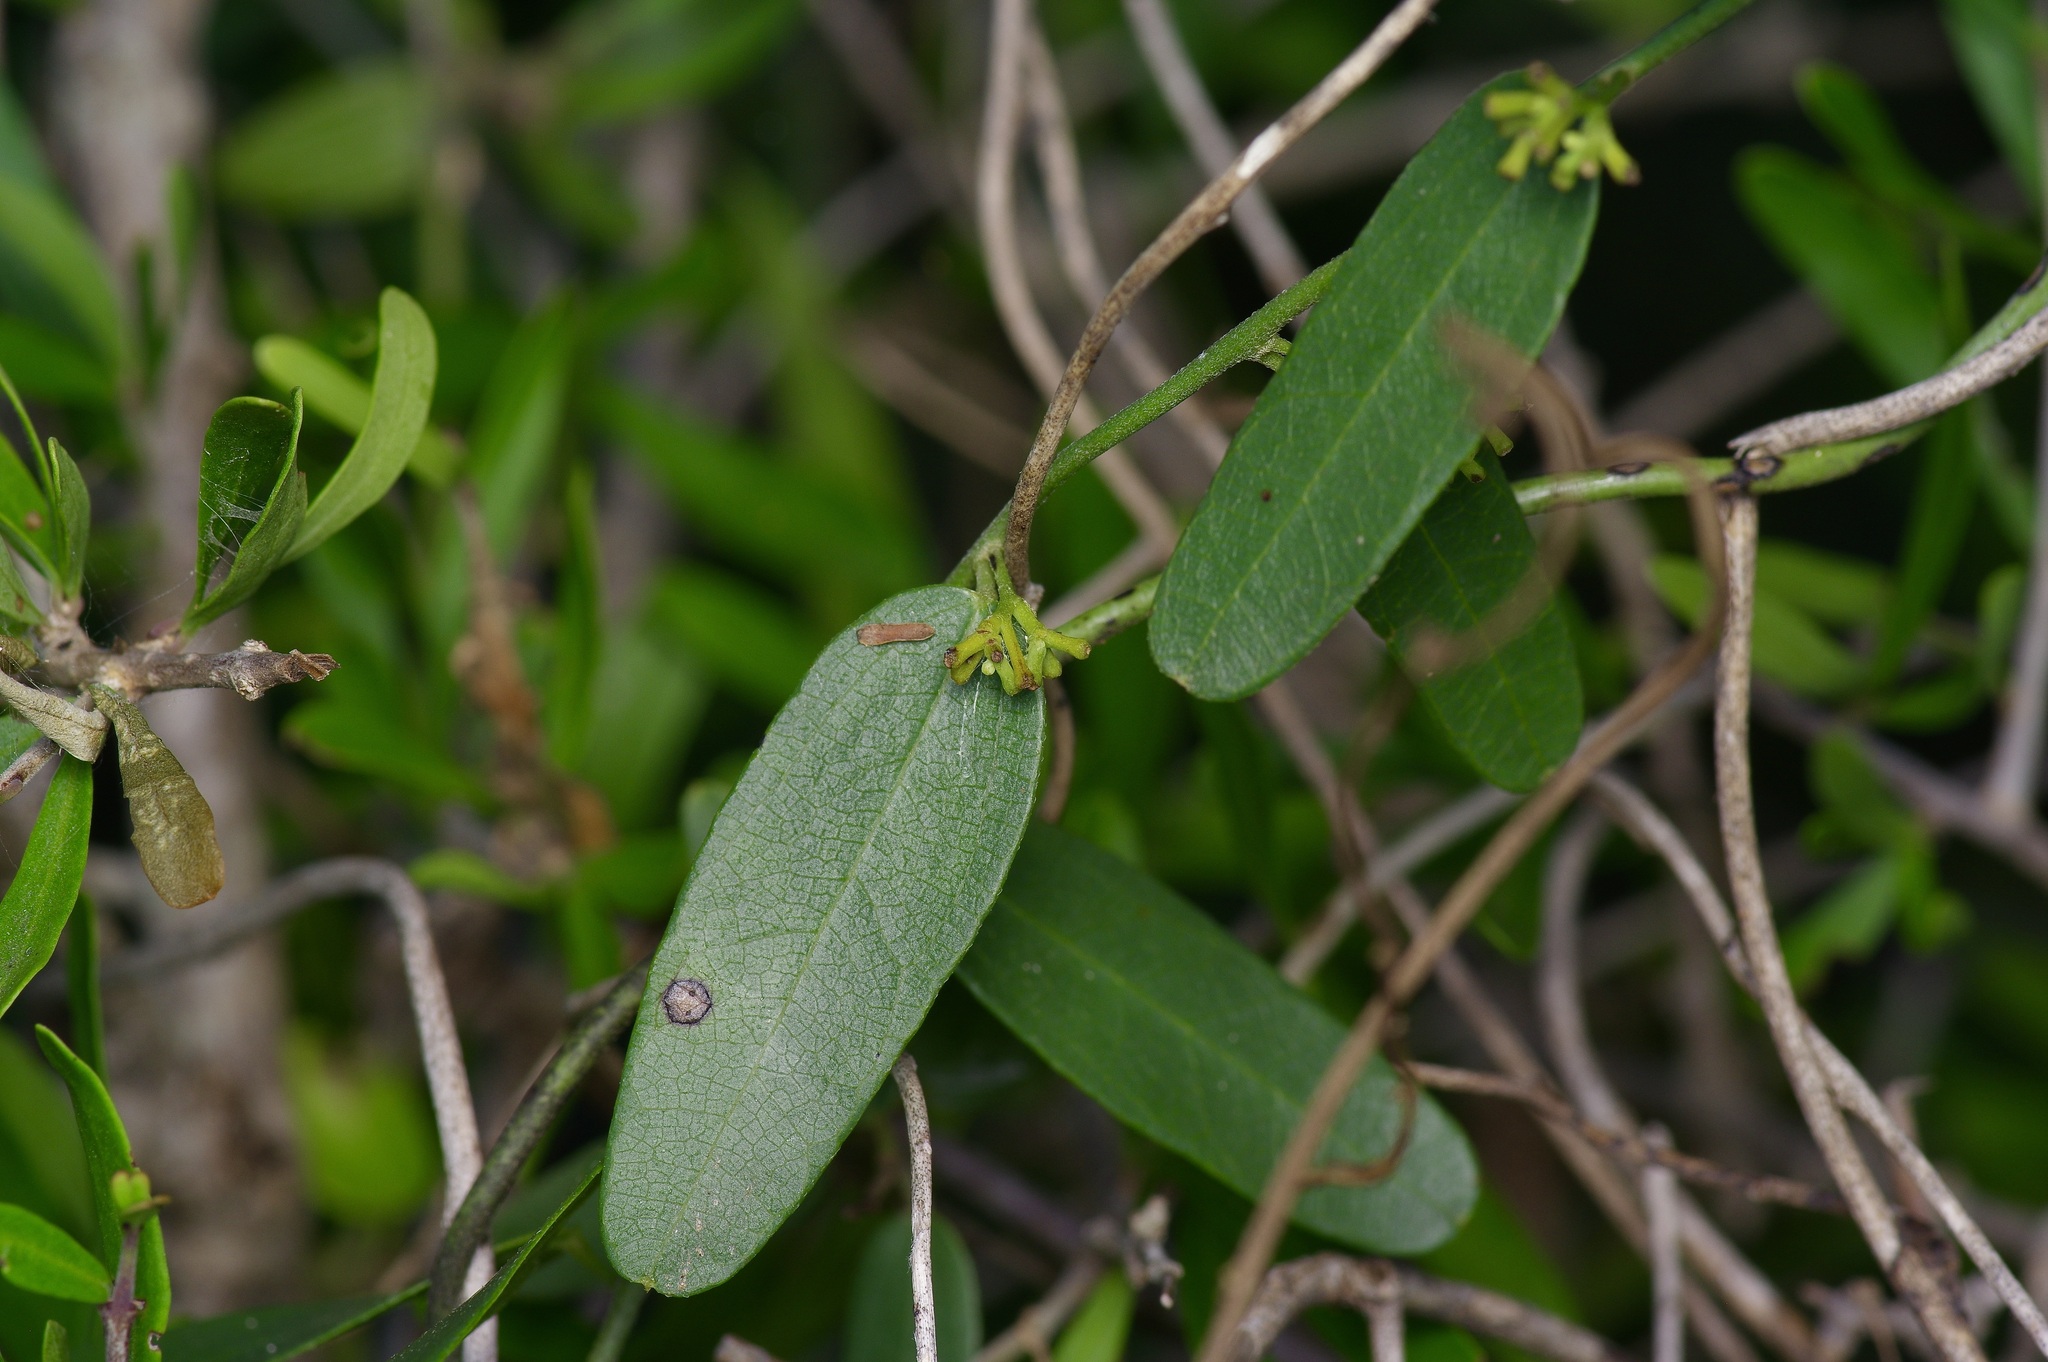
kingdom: Plantae
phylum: Tracheophyta
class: Magnoliopsida
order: Ranunculales
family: Menispermaceae
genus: Cocculus
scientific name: Cocculus diversifolius
